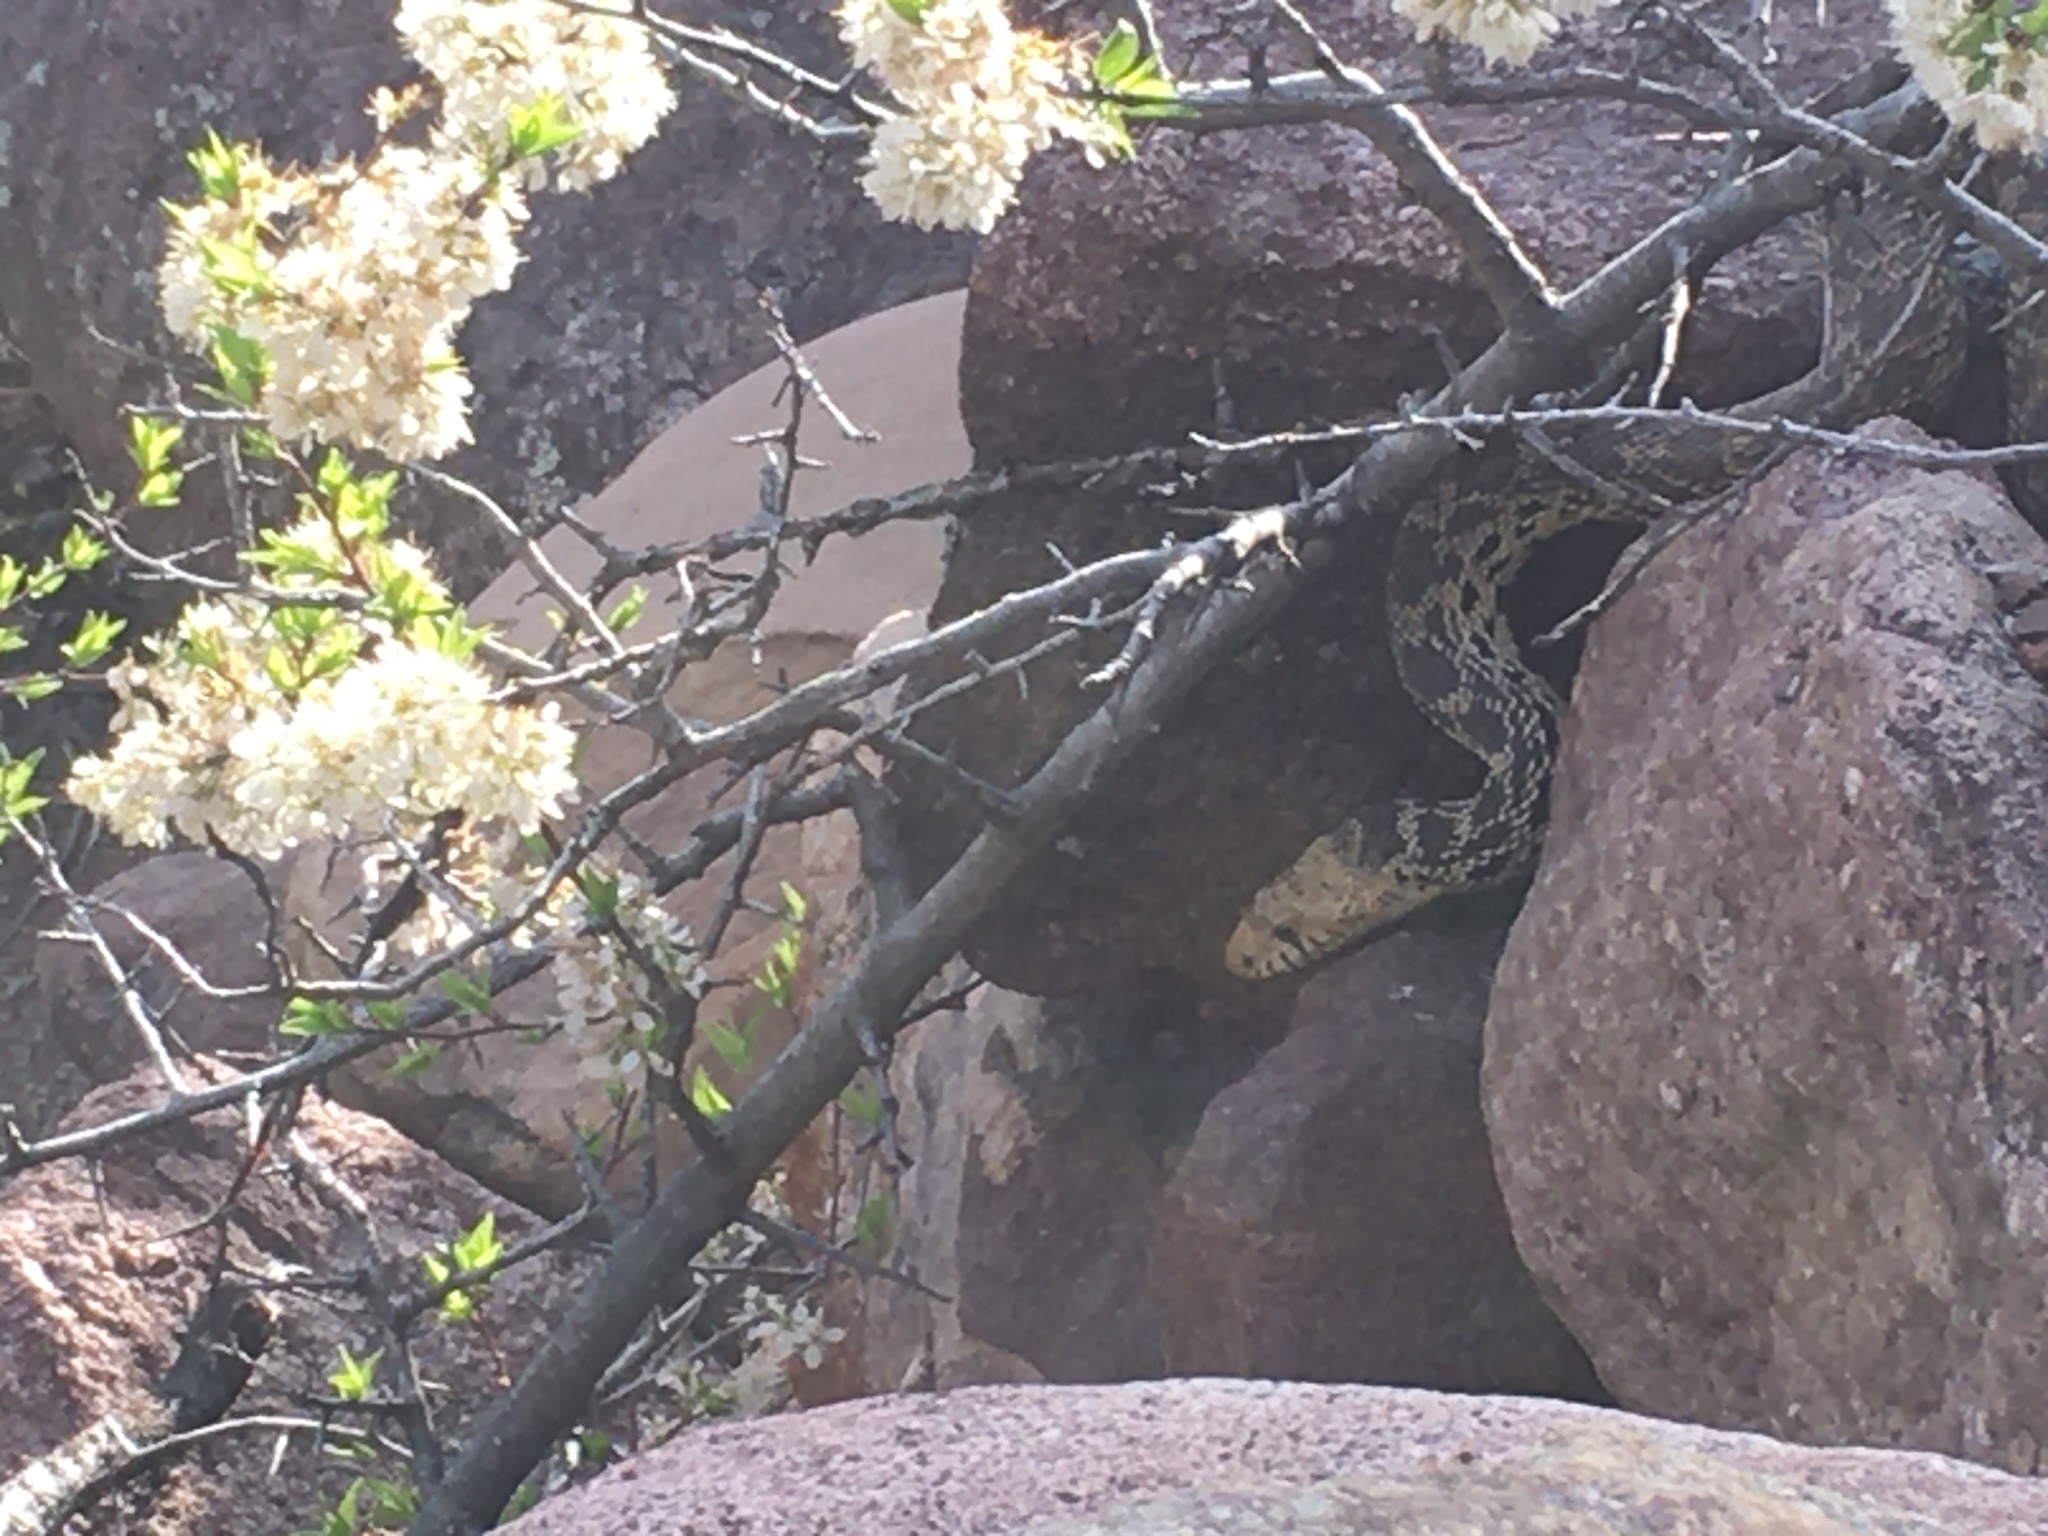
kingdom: Animalia
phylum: Chordata
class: Squamata
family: Colubridae
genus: Pituophis
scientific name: Pituophis catenifer
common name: Gopher snake
